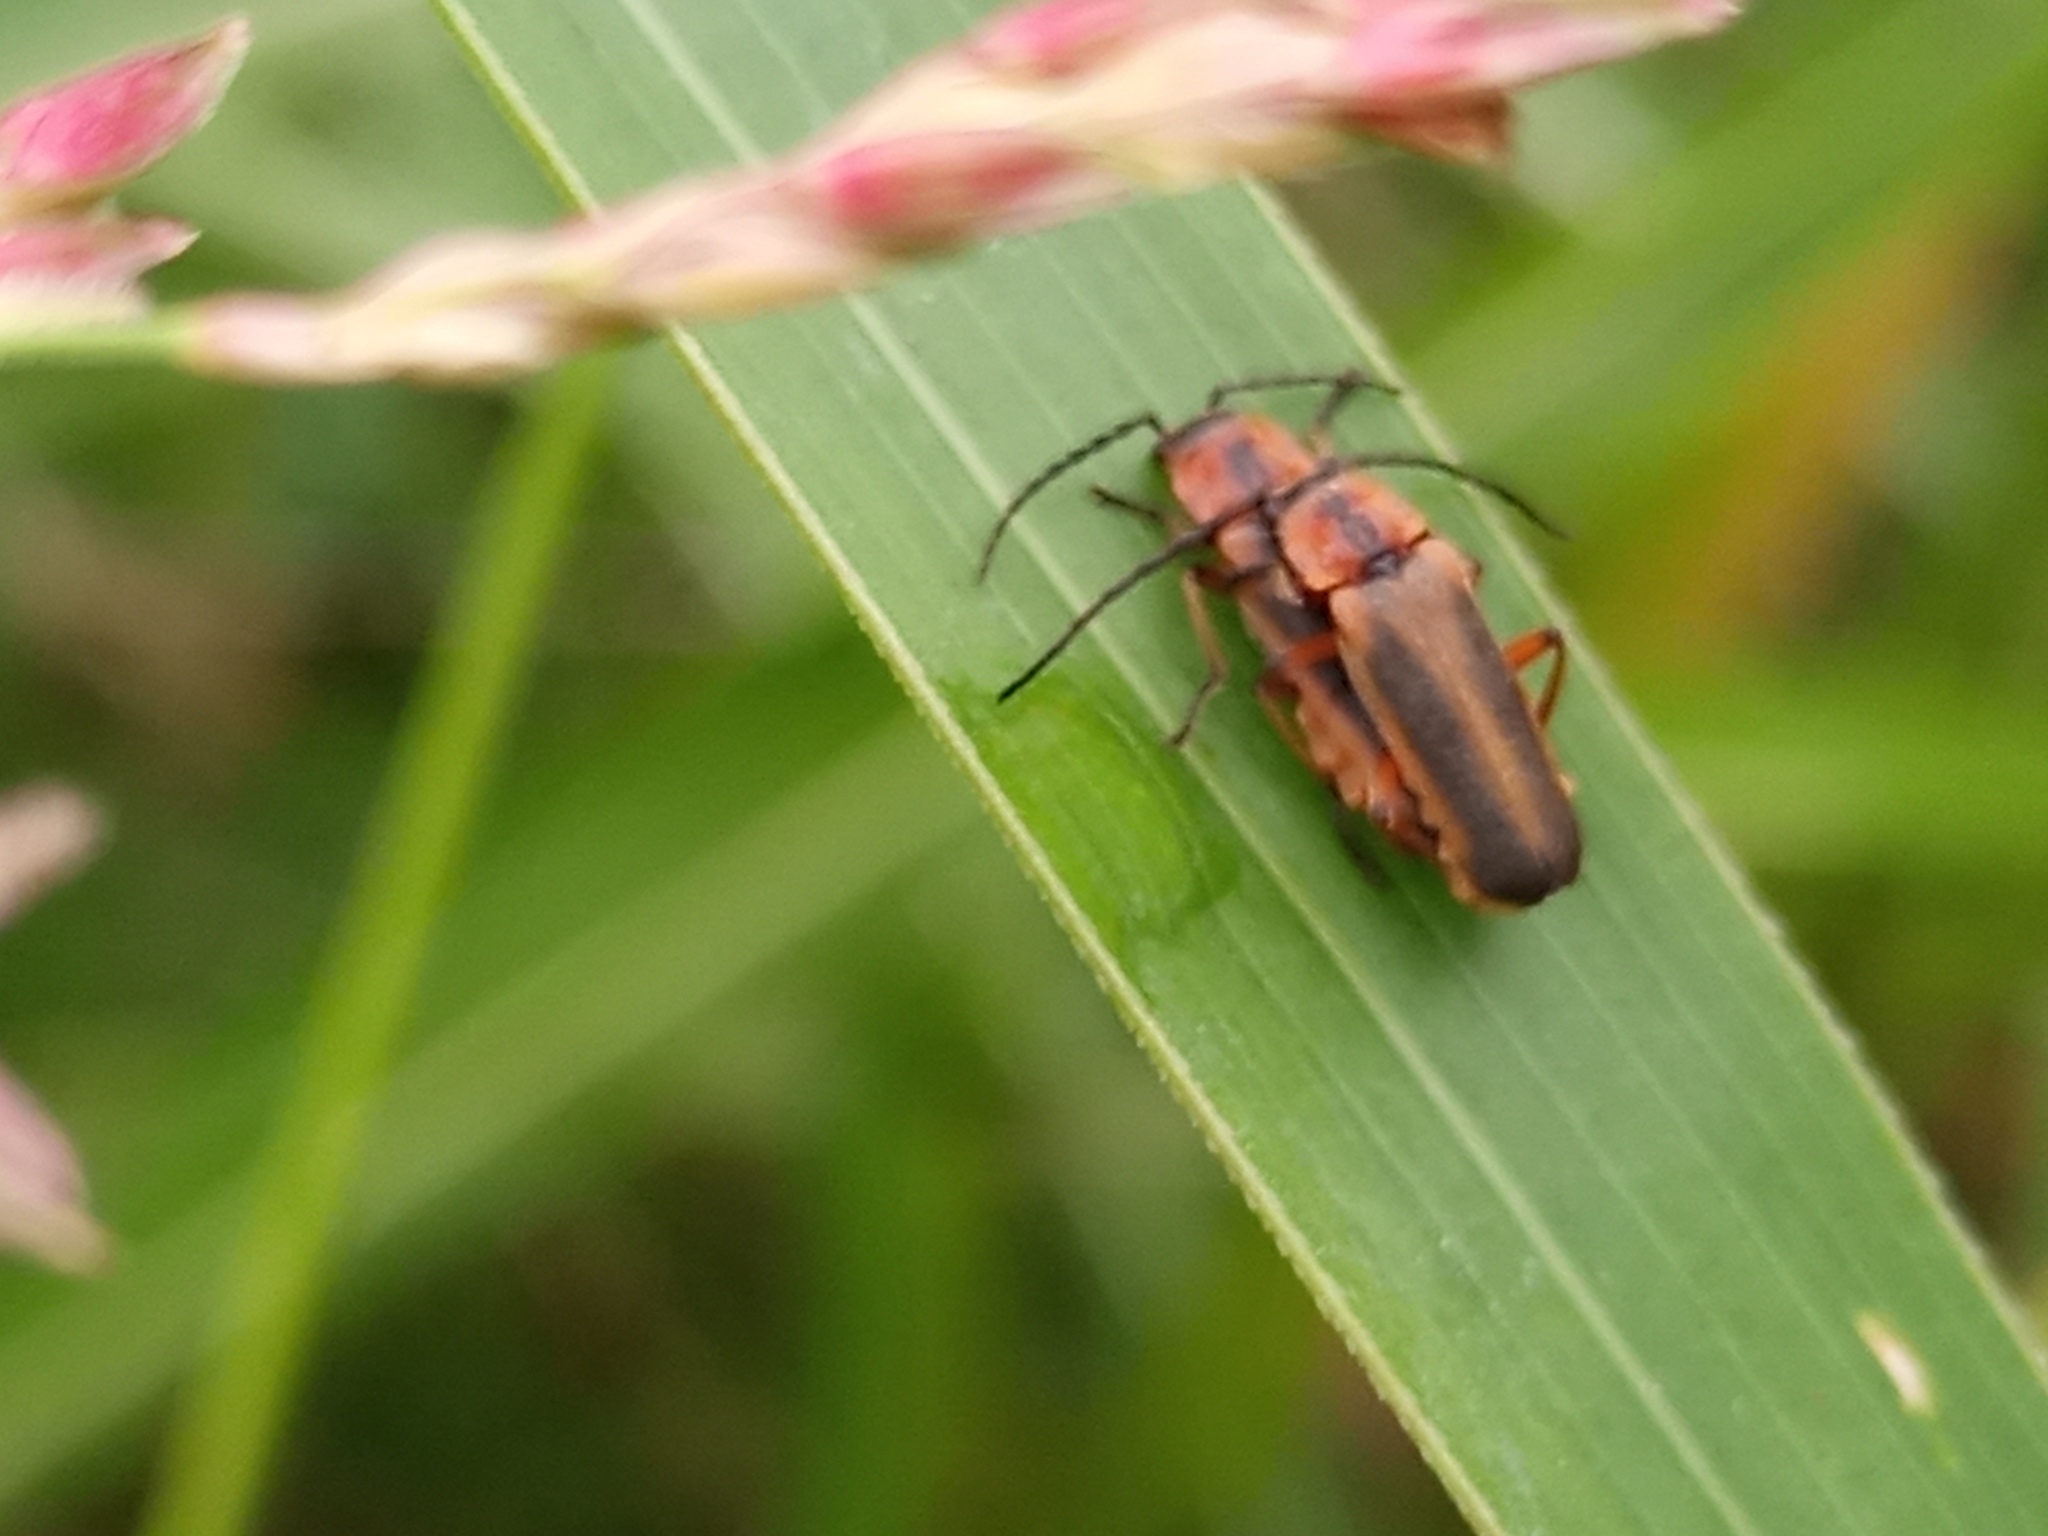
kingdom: Animalia
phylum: Arthropoda
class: Insecta
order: Coleoptera
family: Cantharidae
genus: Discodon
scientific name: Discodon
